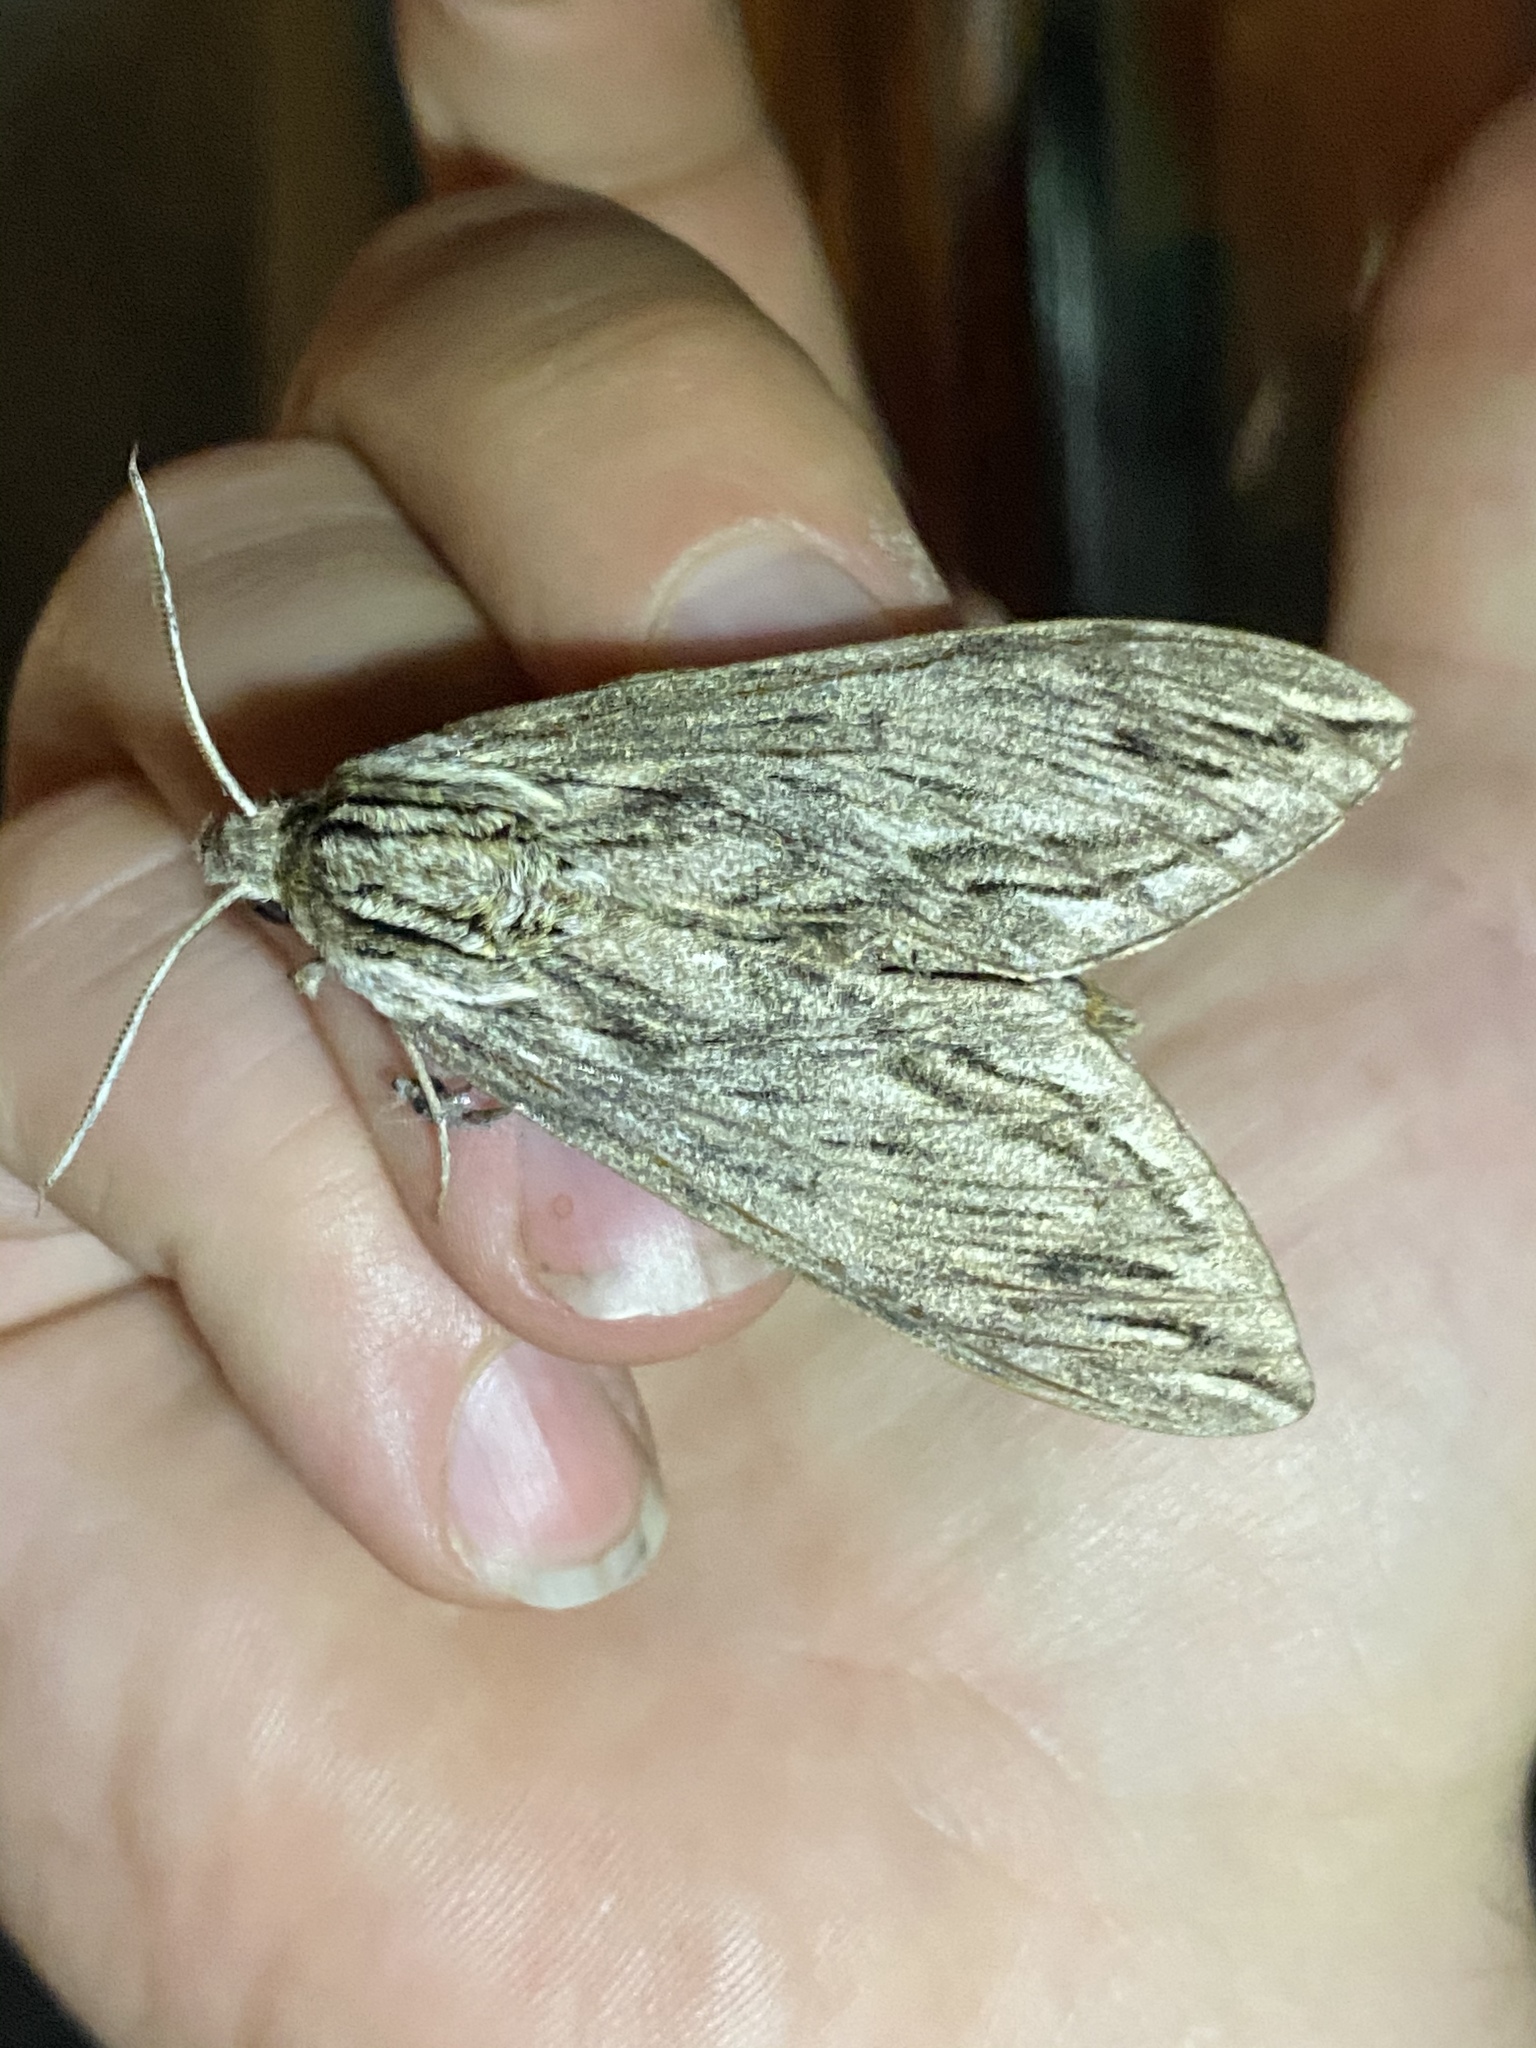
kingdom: Animalia
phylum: Arthropoda
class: Insecta
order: Lepidoptera
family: Sphingidae
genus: Sphinx
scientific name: Sphinx canadensis
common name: Canadian sphinx
